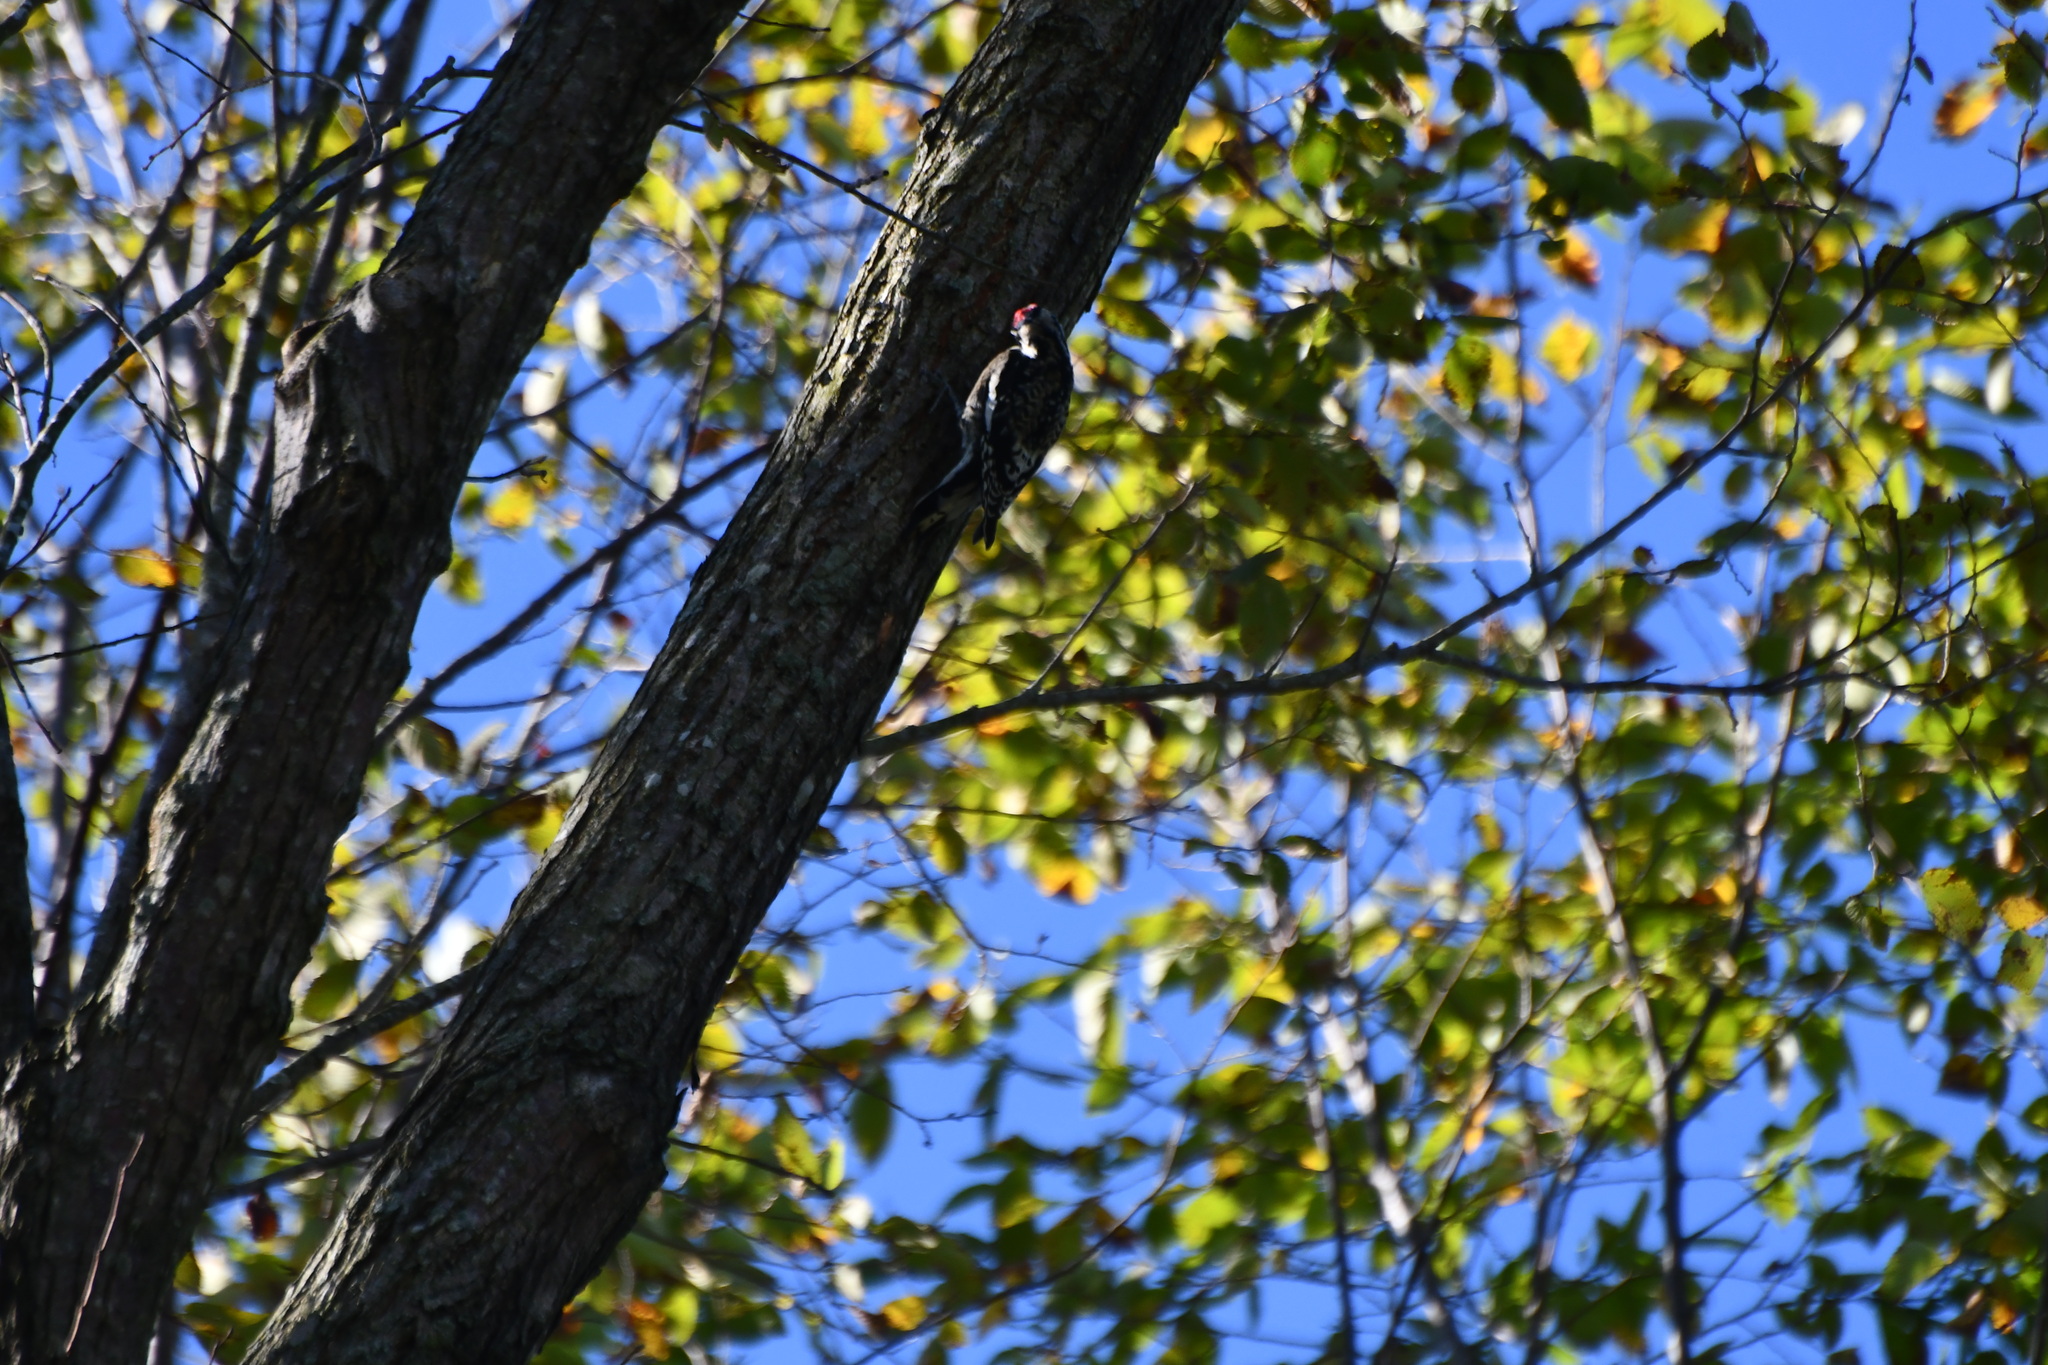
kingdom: Animalia
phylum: Chordata
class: Aves
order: Piciformes
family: Picidae
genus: Sphyrapicus
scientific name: Sphyrapicus varius
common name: Yellow-bellied sapsucker
